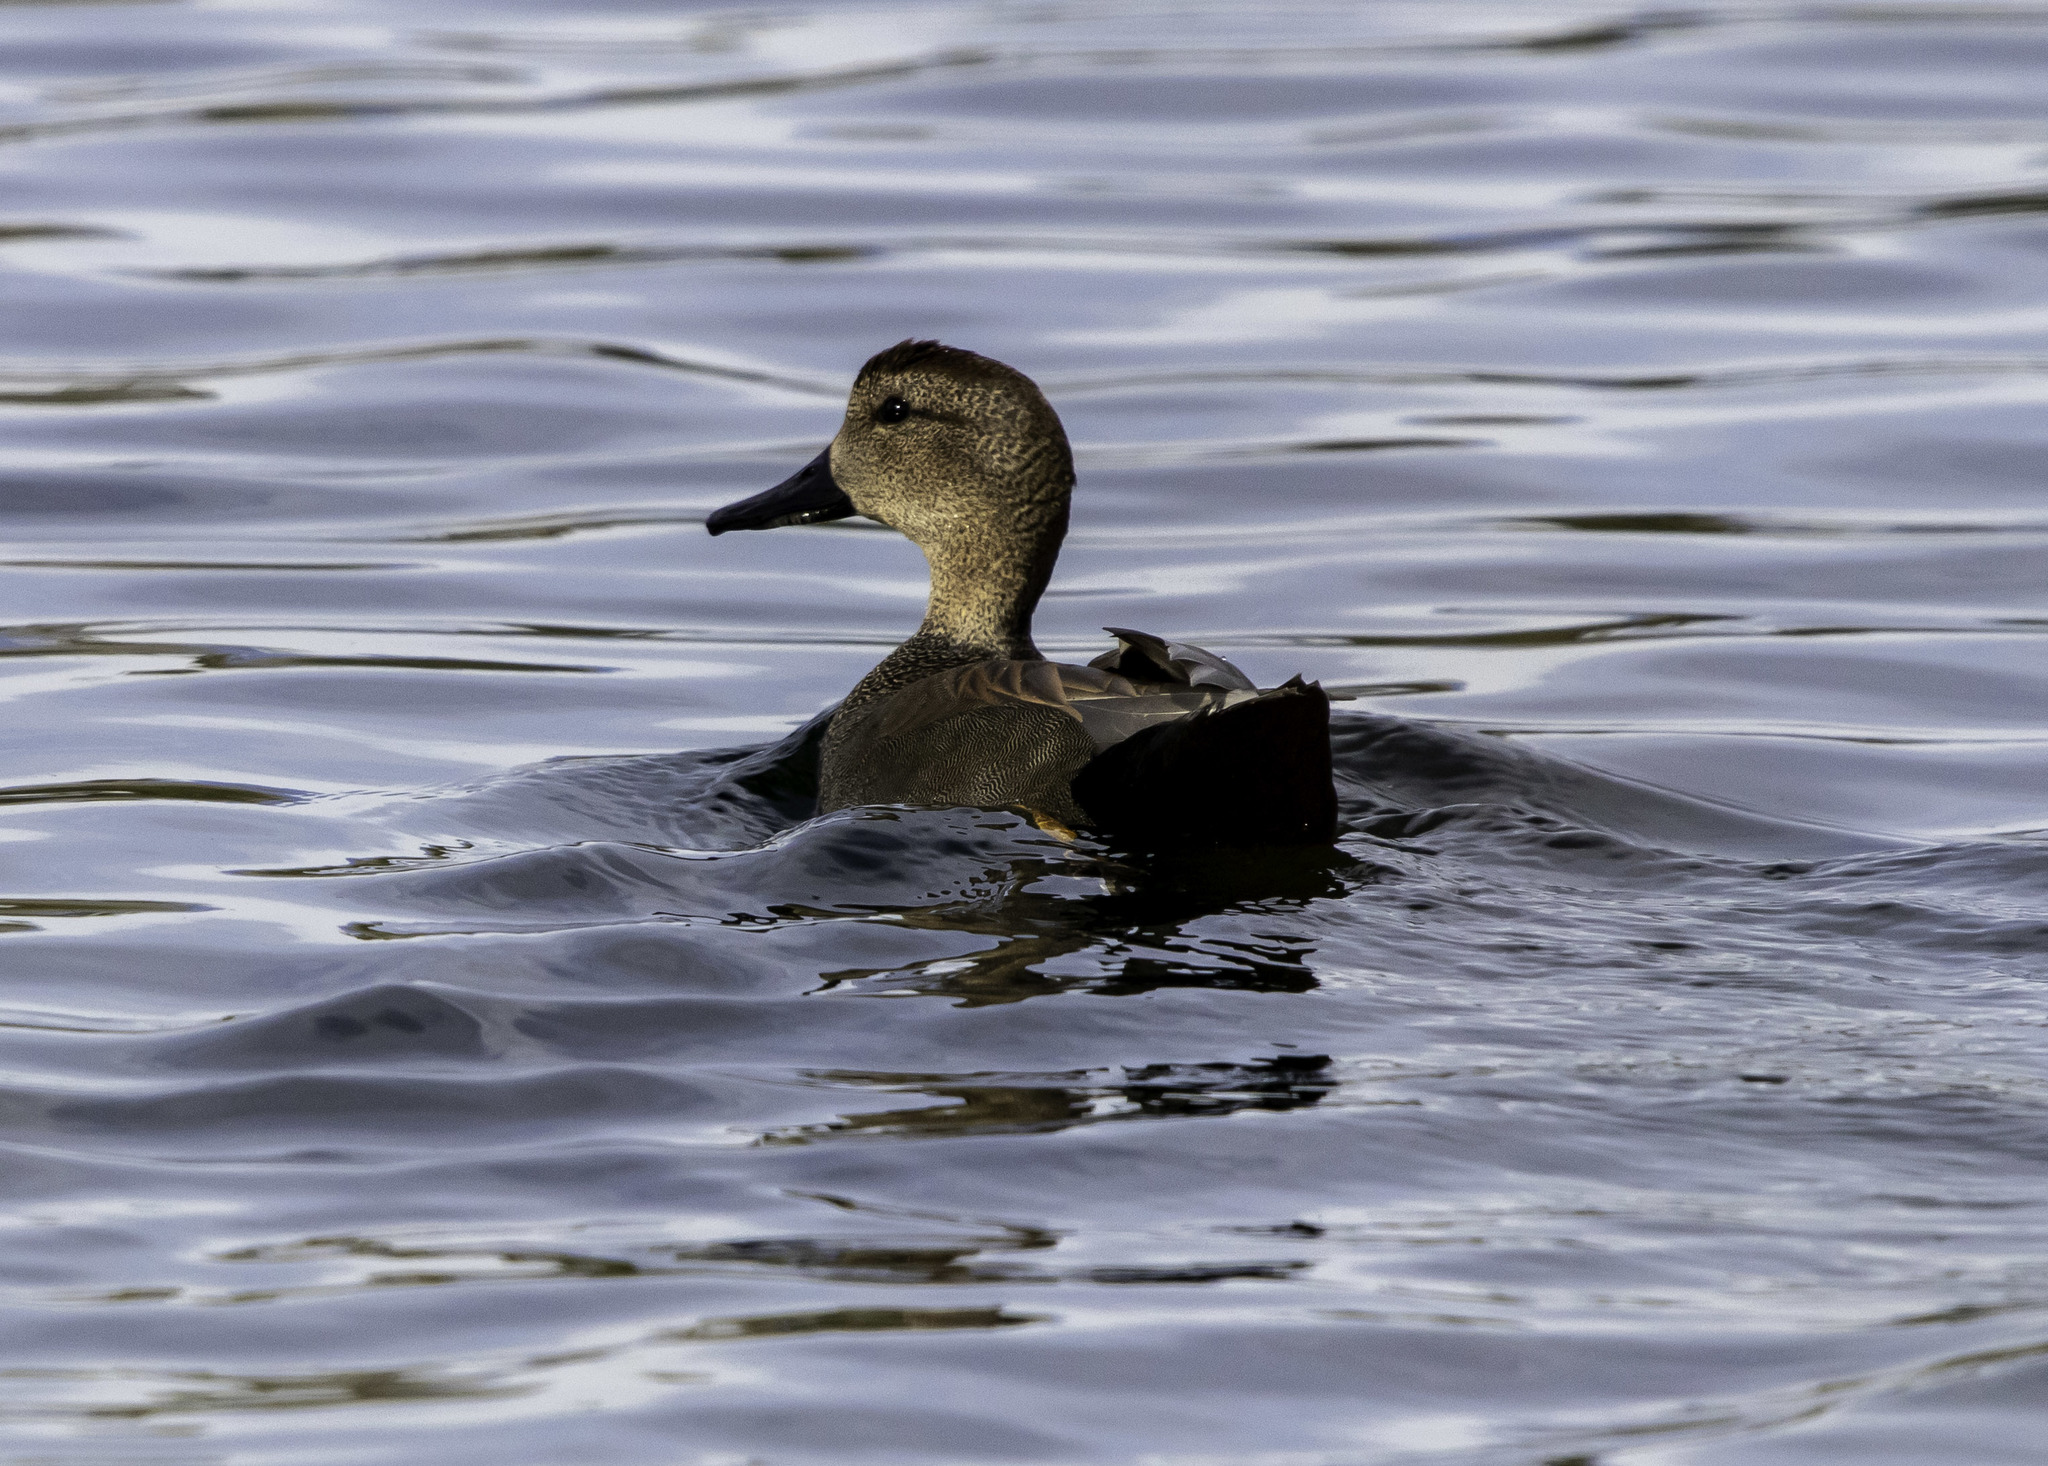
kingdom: Animalia
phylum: Chordata
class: Aves
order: Anseriformes
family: Anatidae
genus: Mareca
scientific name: Mareca strepera
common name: Gadwall
